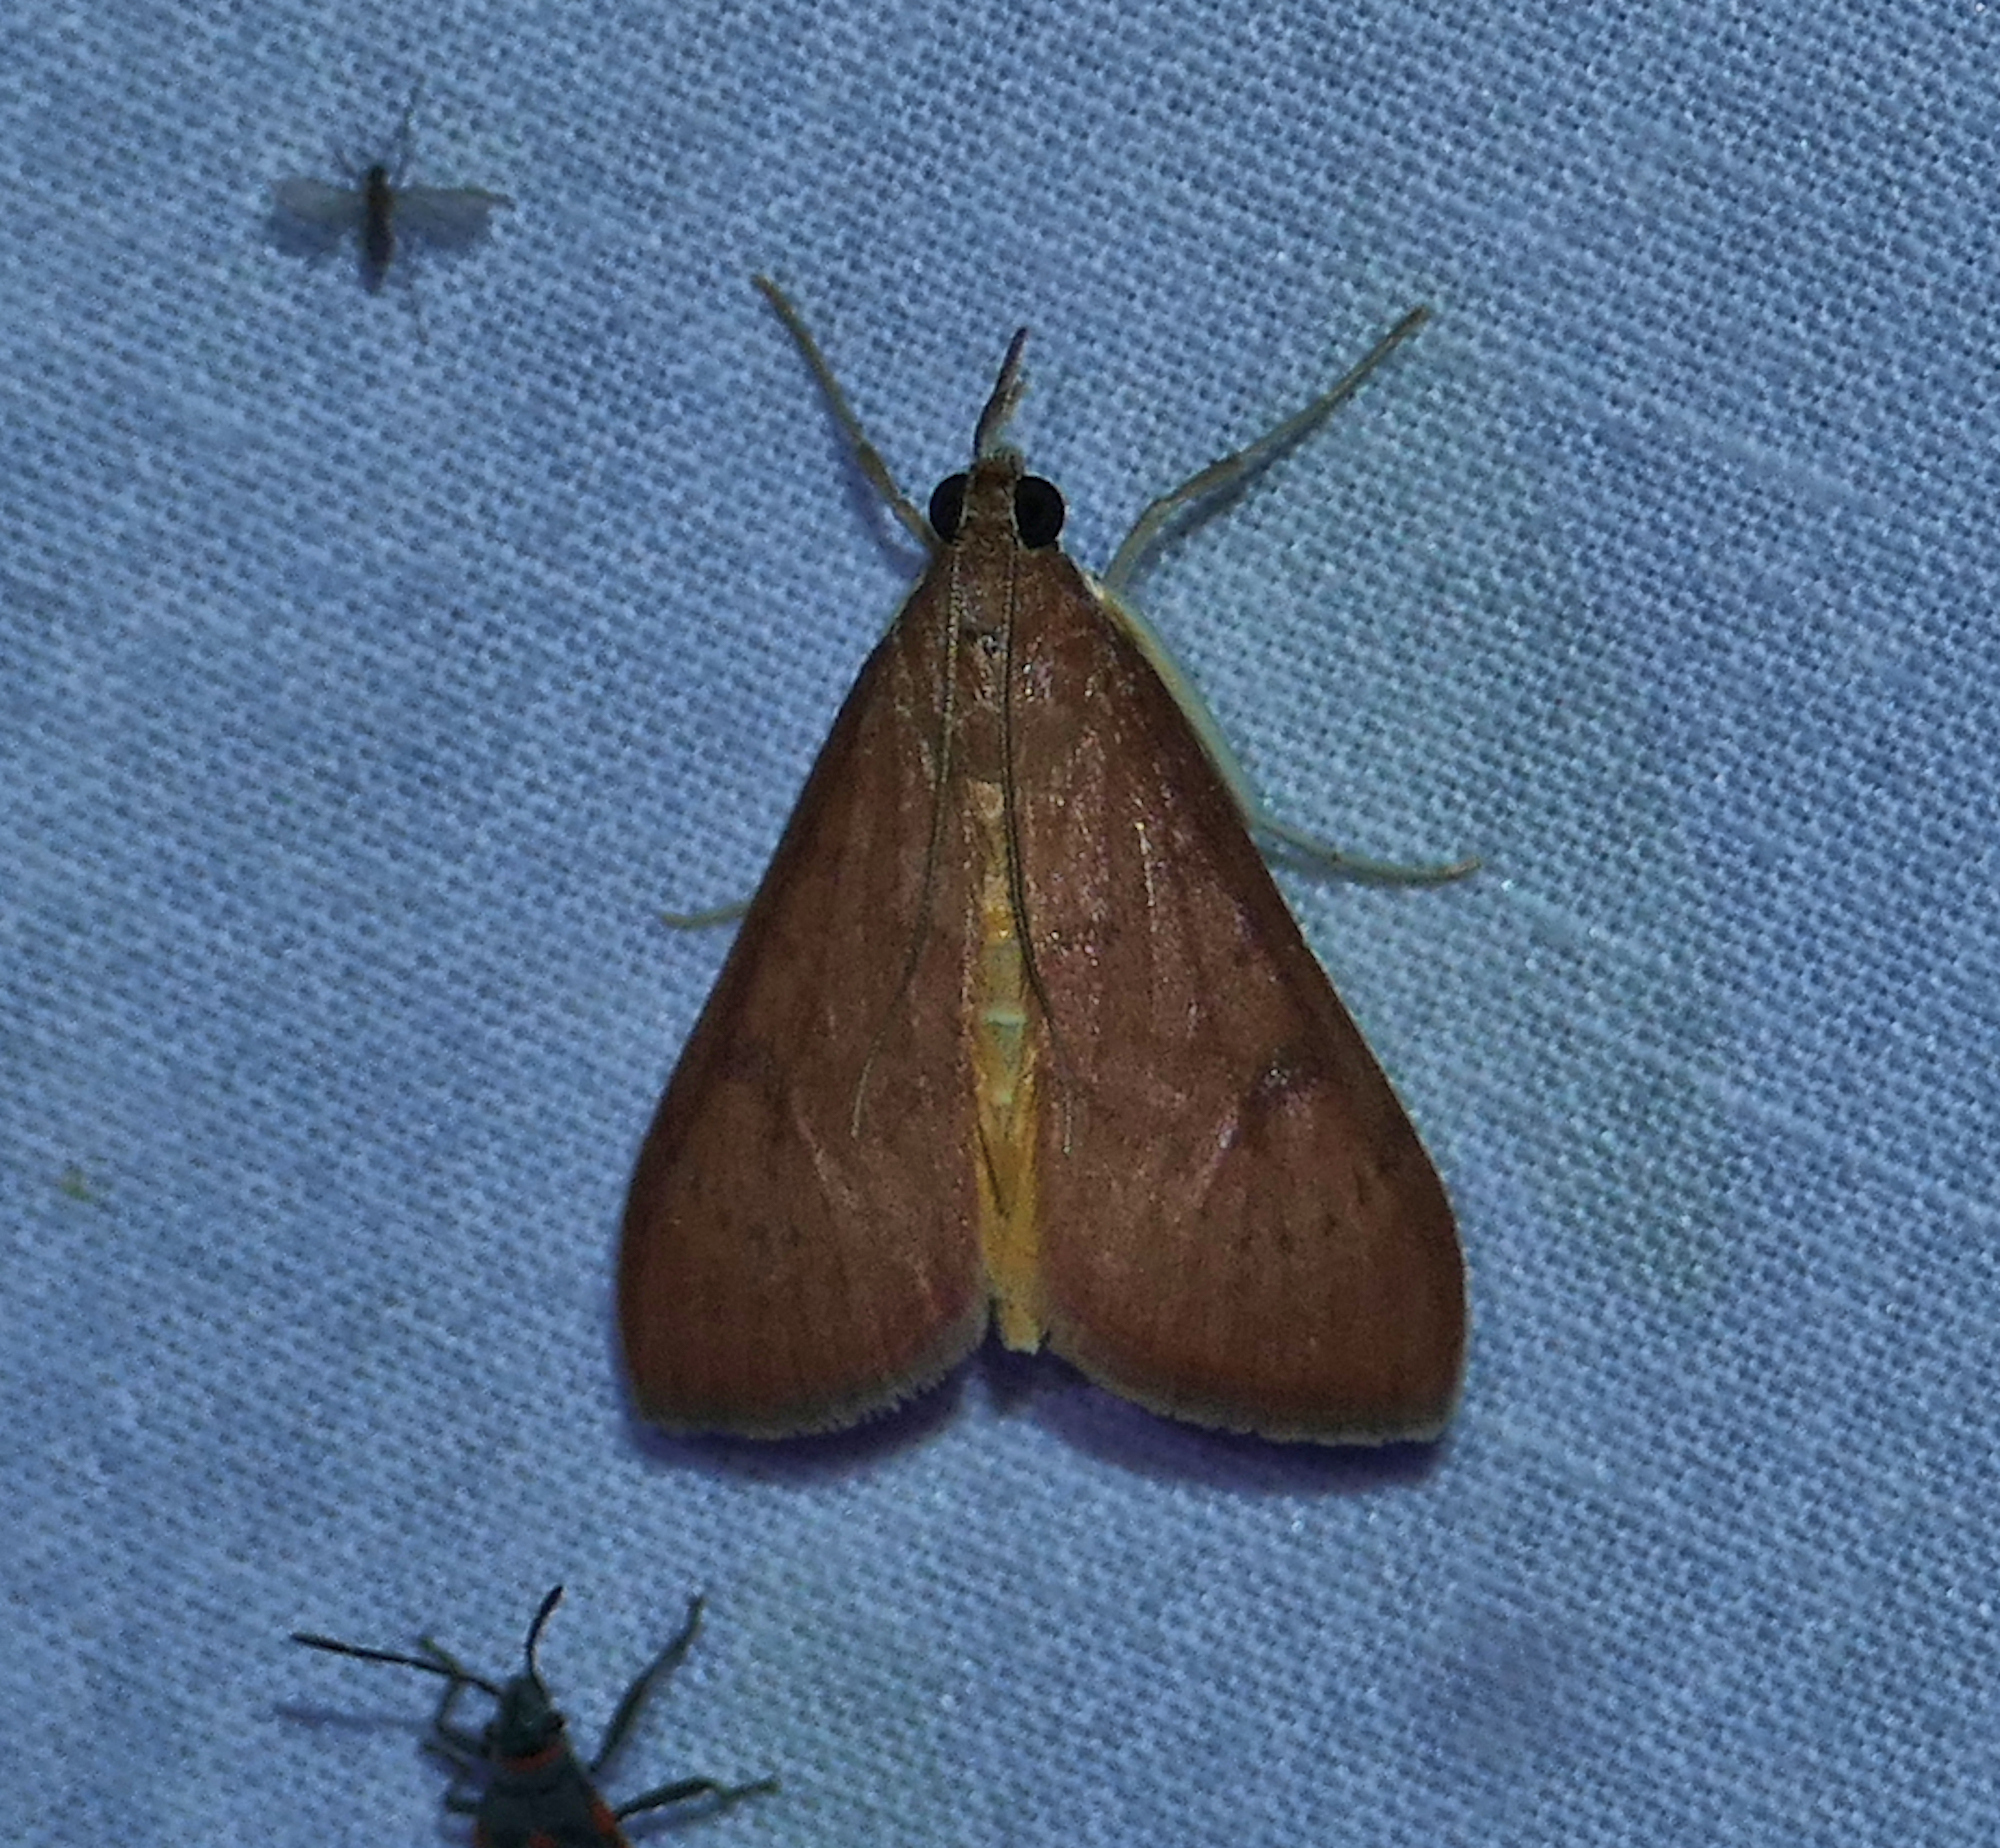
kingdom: Animalia
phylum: Arthropoda
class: Insecta
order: Lepidoptera
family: Crambidae
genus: Uresiphita
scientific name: Uresiphita reversalis
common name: Genista broom moth
